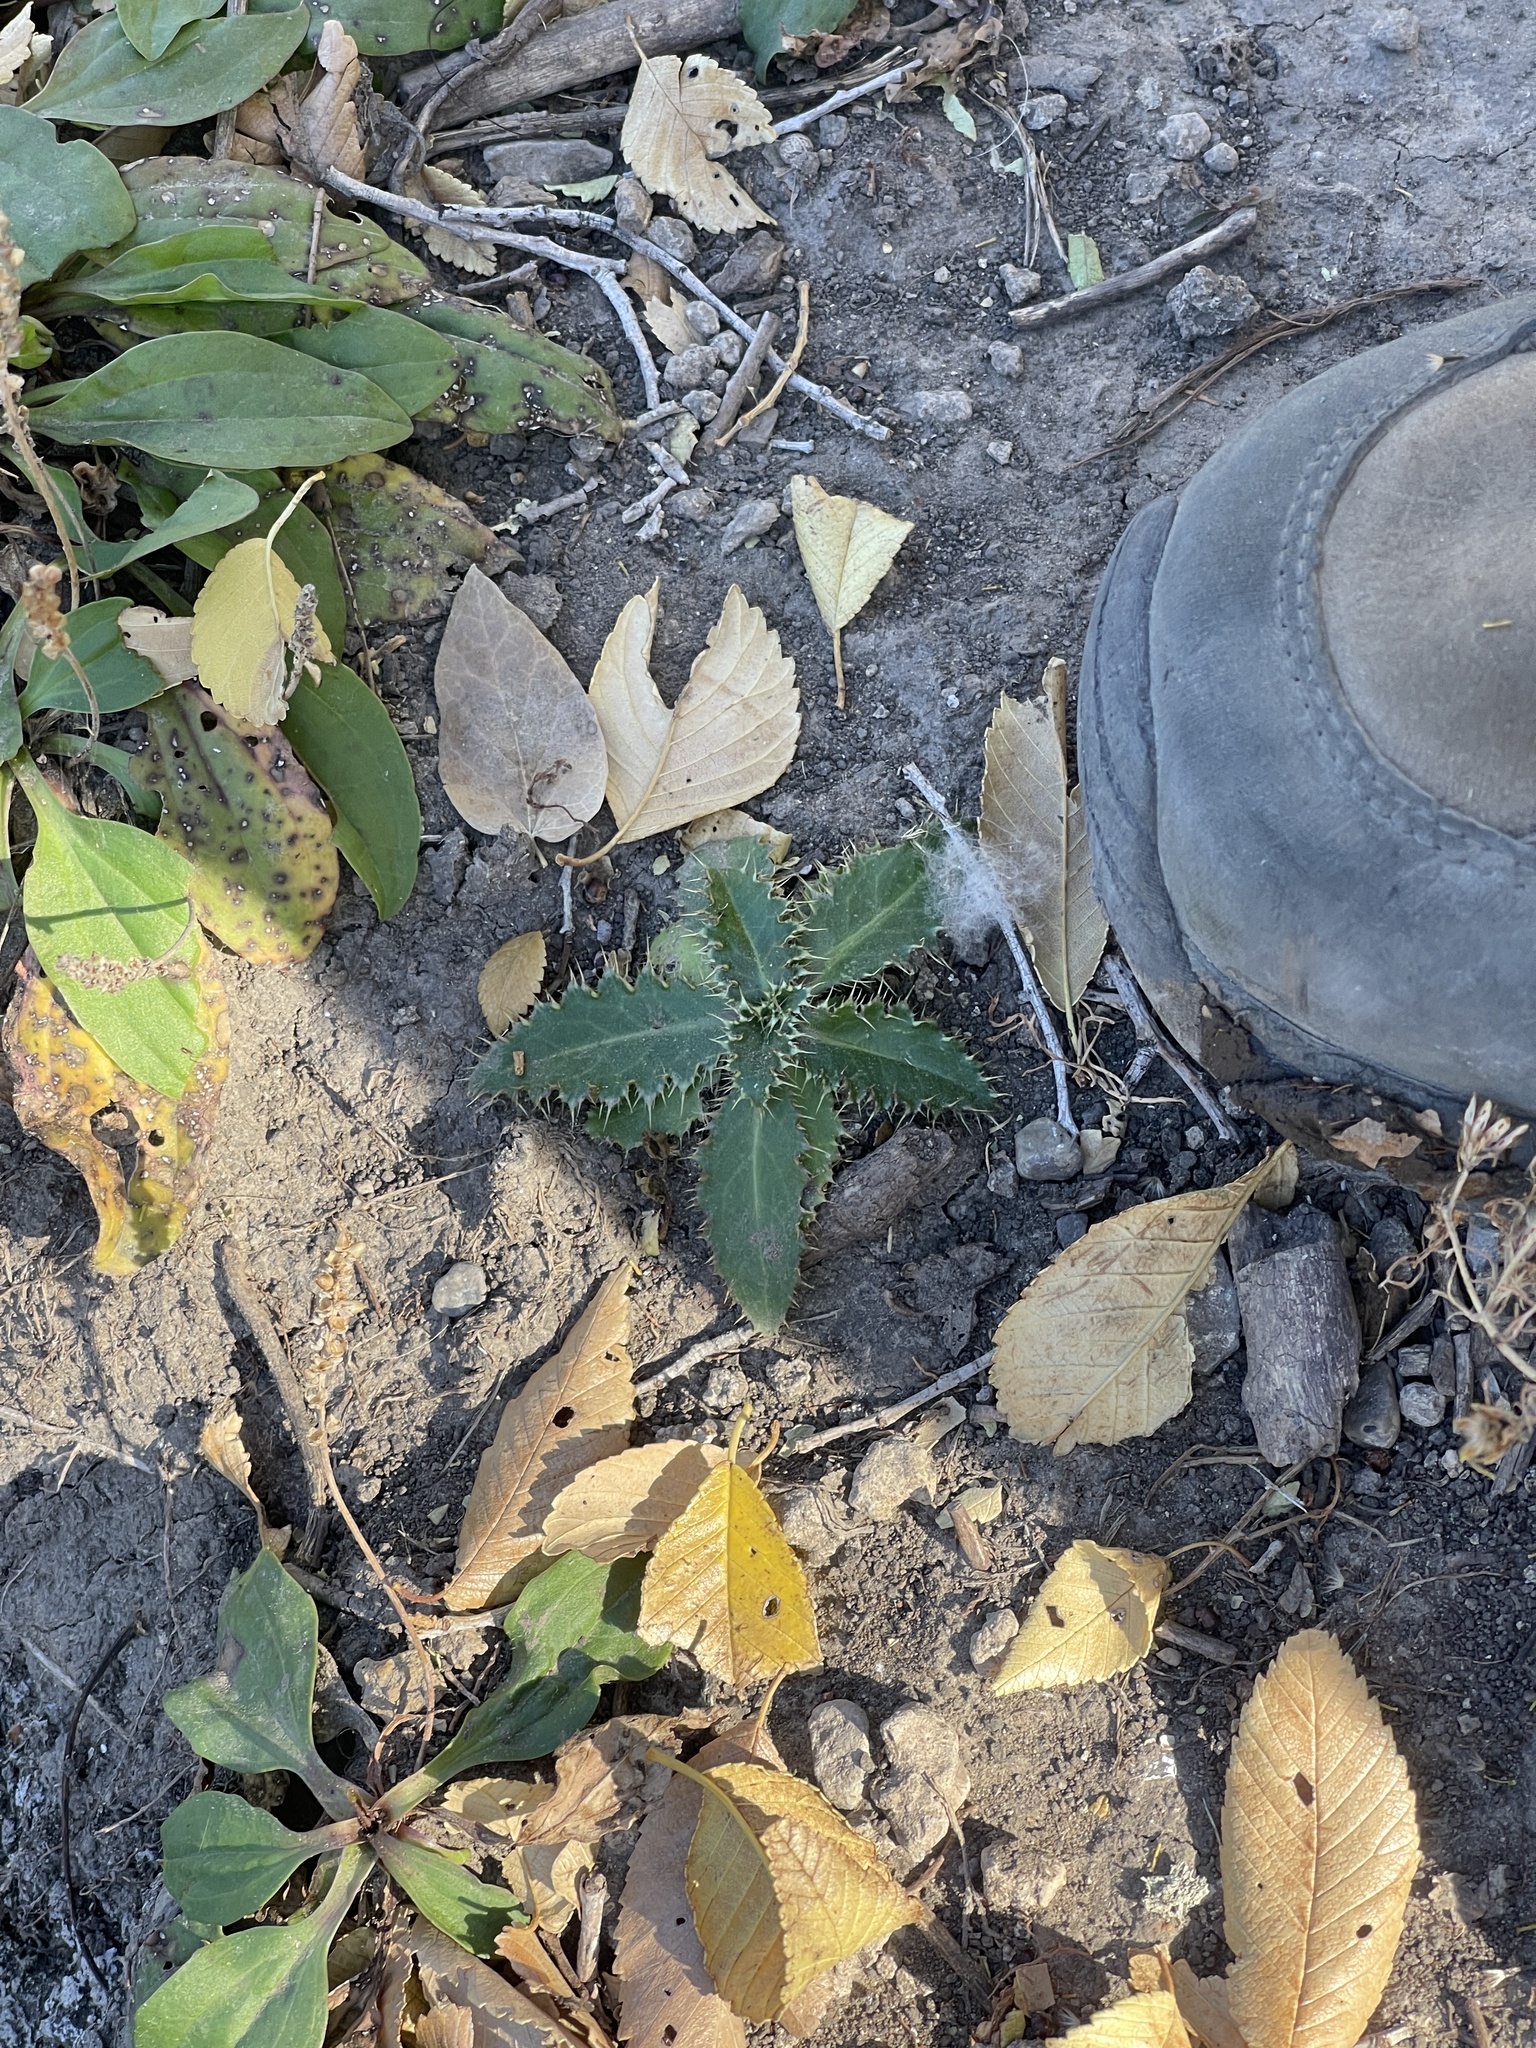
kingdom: Plantae
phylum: Tracheophyta
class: Magnoliopsida
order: Asterales
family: Asteraceae
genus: Carduus
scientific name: Carduus nutans
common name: Musk thistle
